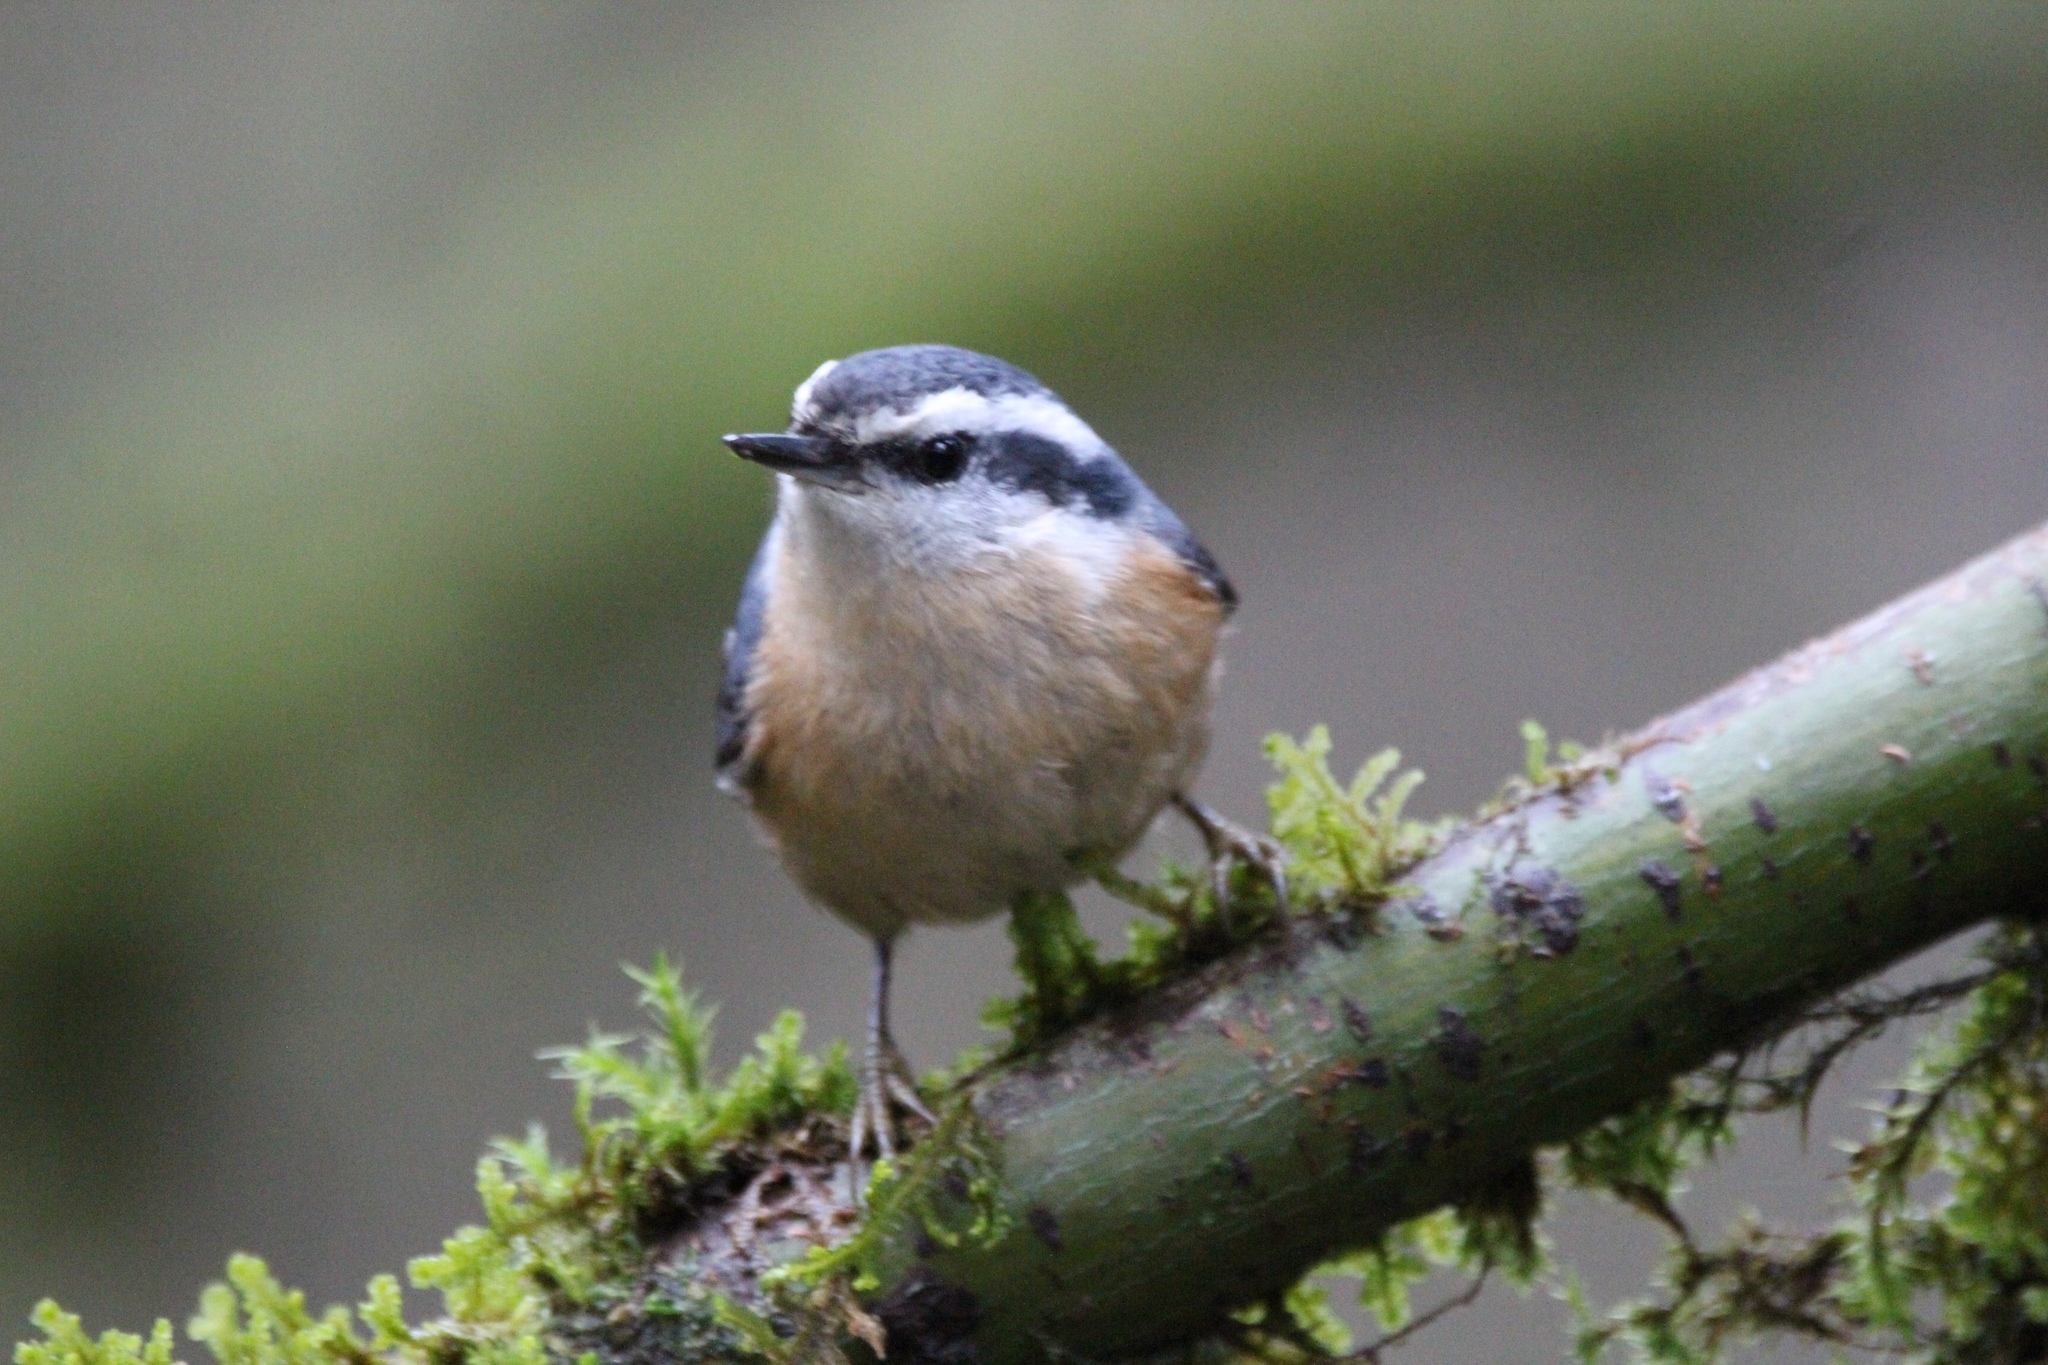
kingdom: Animalia
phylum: Chordata
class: Aves
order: Passeriformes
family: Sittidae
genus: Sitta
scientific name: Sitta canadensis
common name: Red-breasted nuthatch
